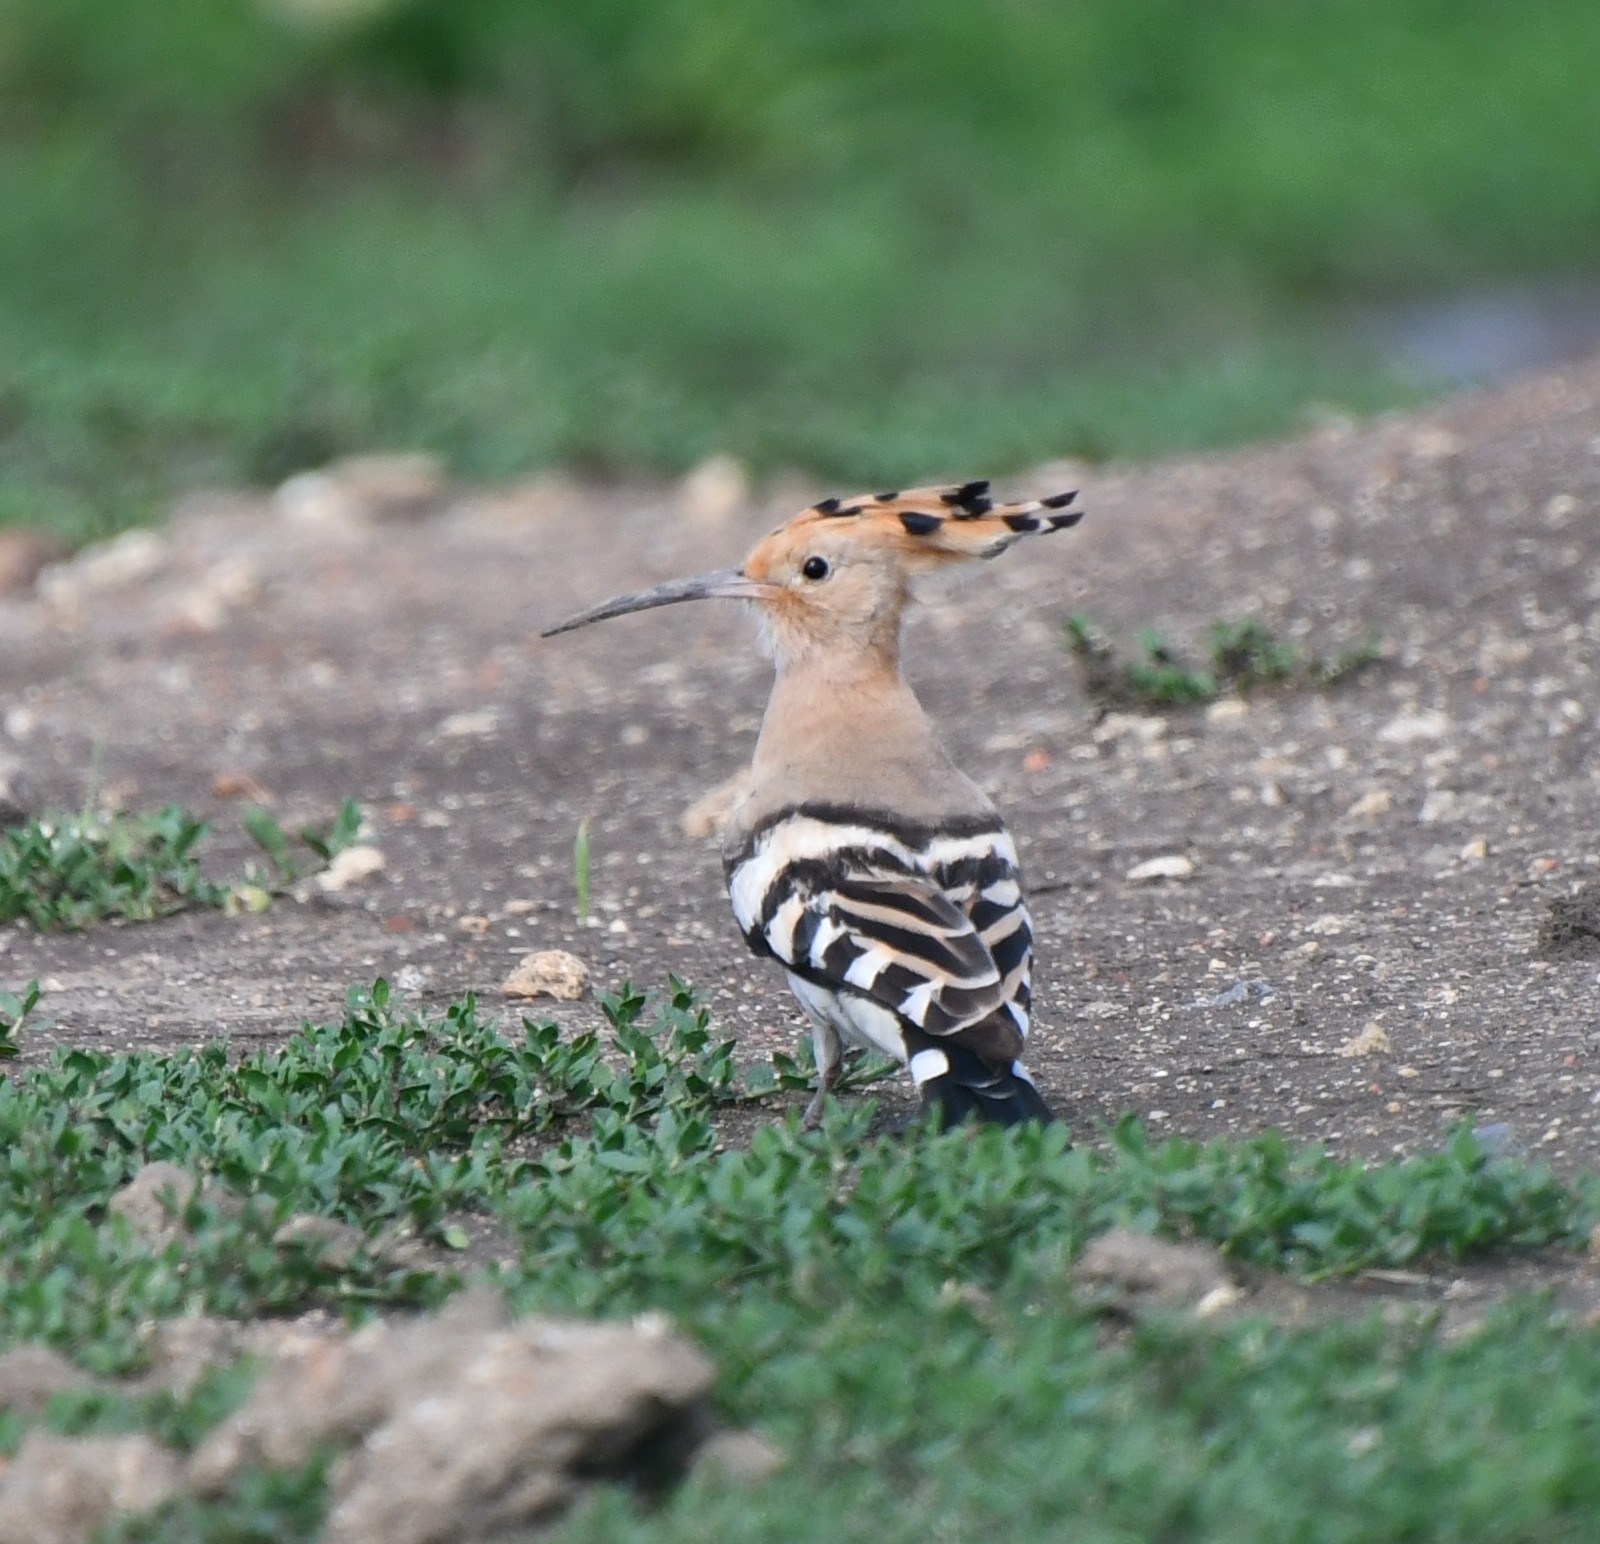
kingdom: Animalia
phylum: Chordata
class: Aves
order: Bucerotiformes
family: Upupidae
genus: Upupa
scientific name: Upupa epops
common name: Eurasian hoopoe
